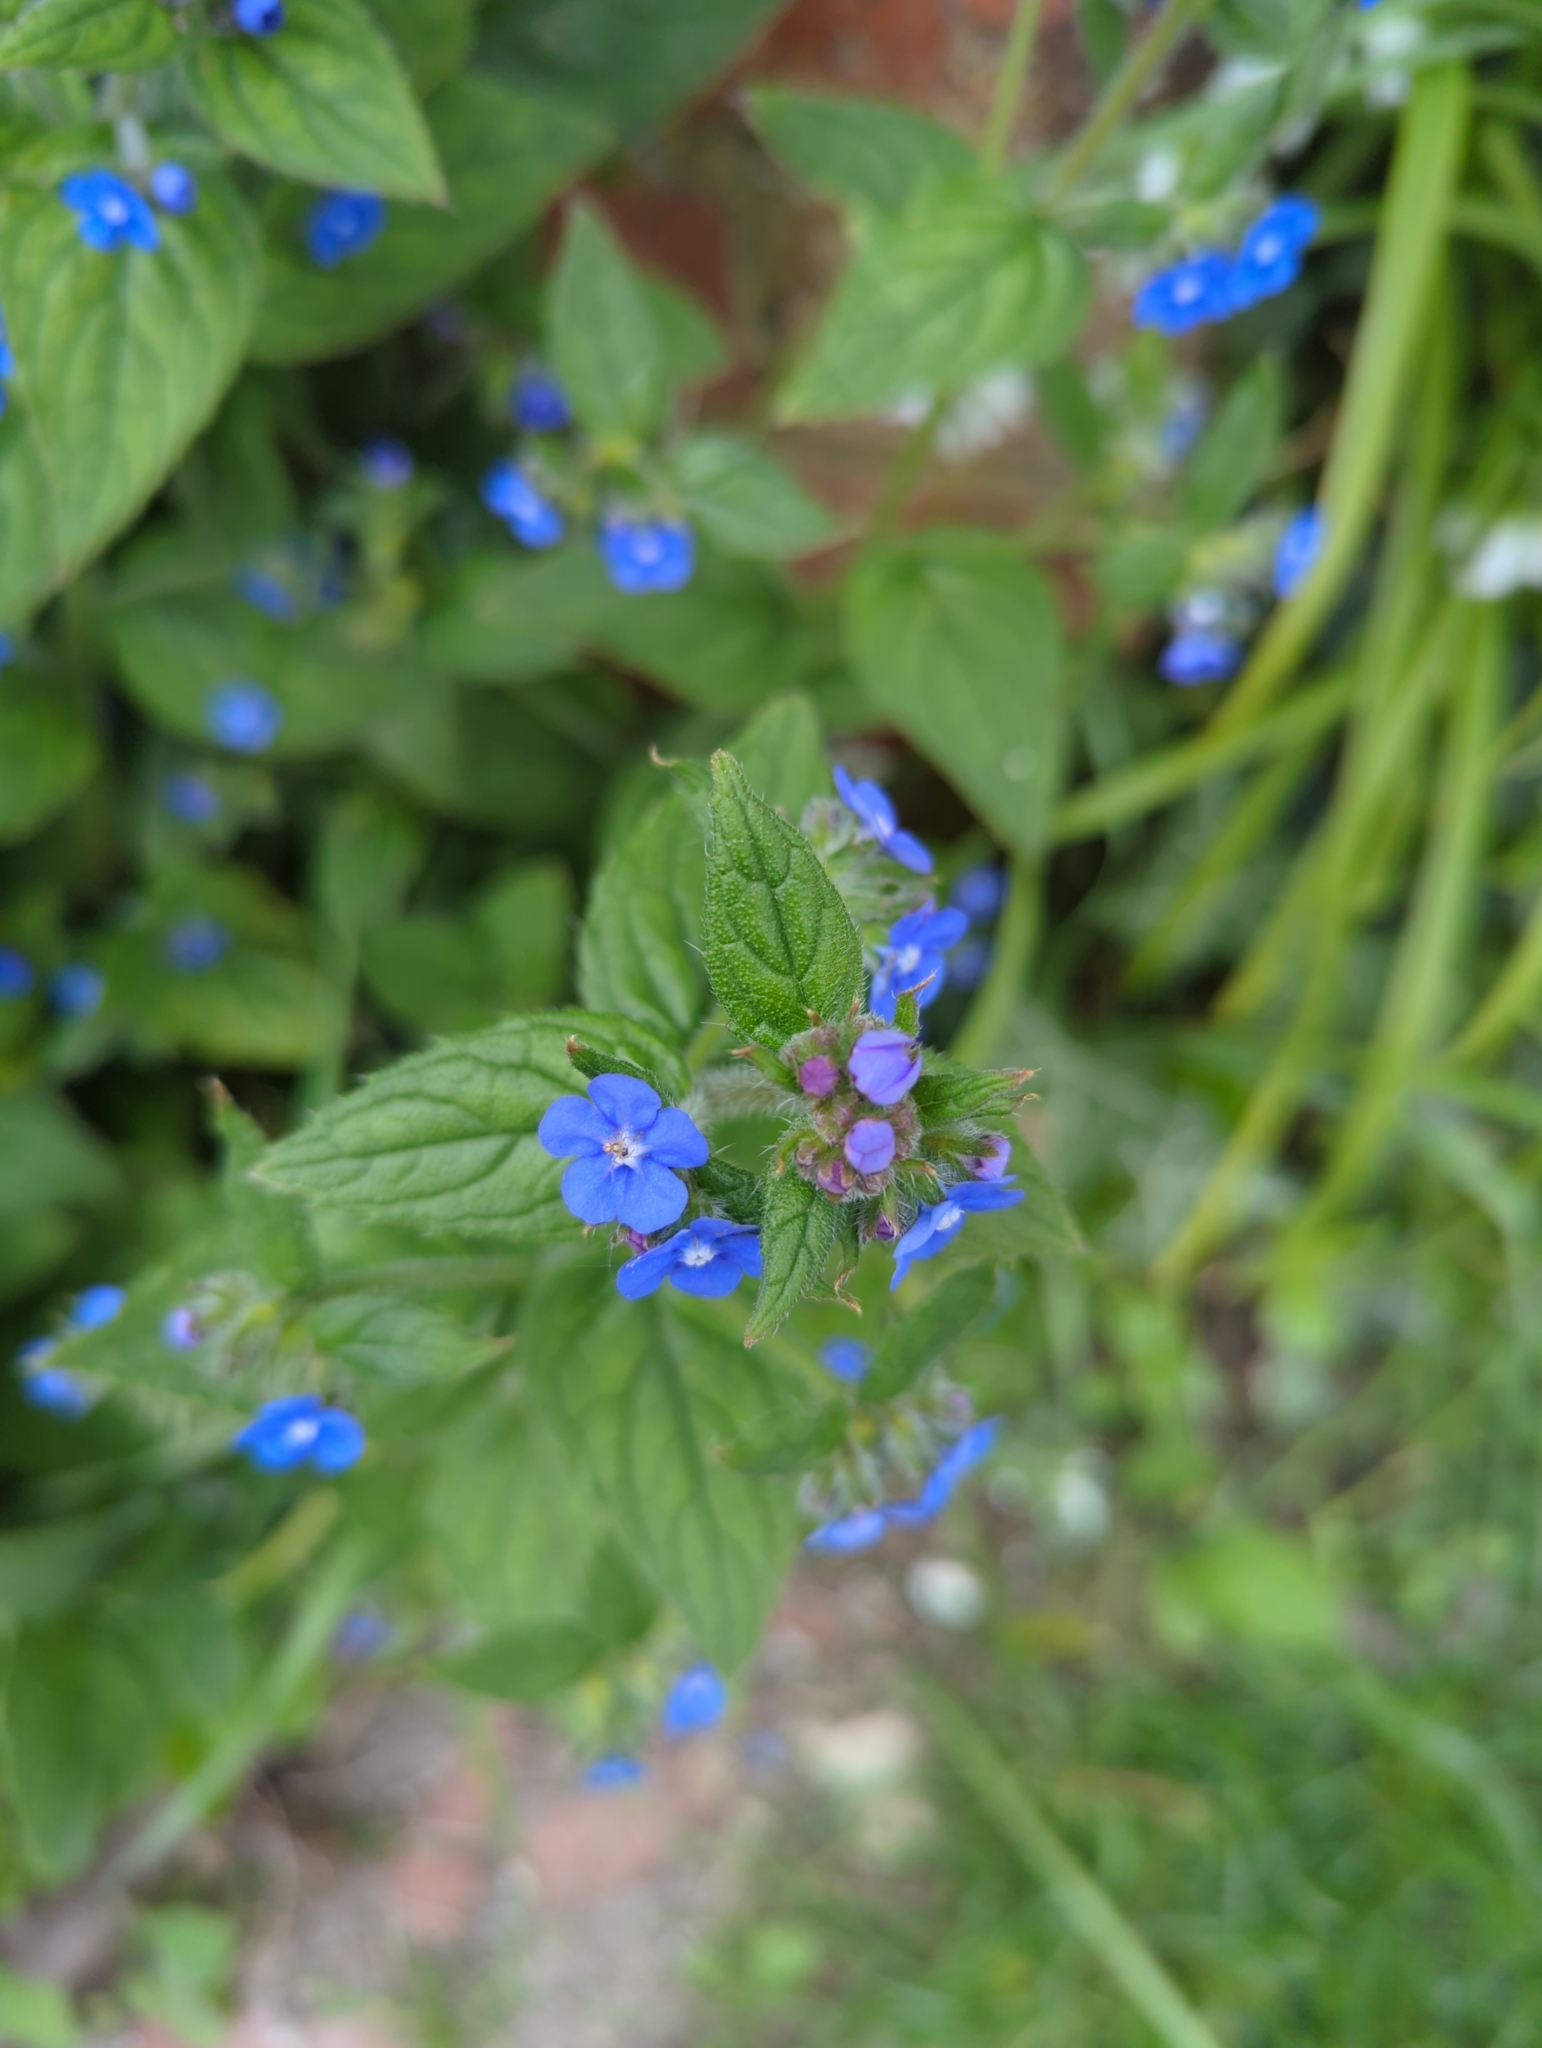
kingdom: Plantae
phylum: Tracheophyta
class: Magnoliopsida
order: Boraginales
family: Boraginaceae
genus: Pentaglottis
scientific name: Pentaglottis sempervirens
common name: Green alkanet
